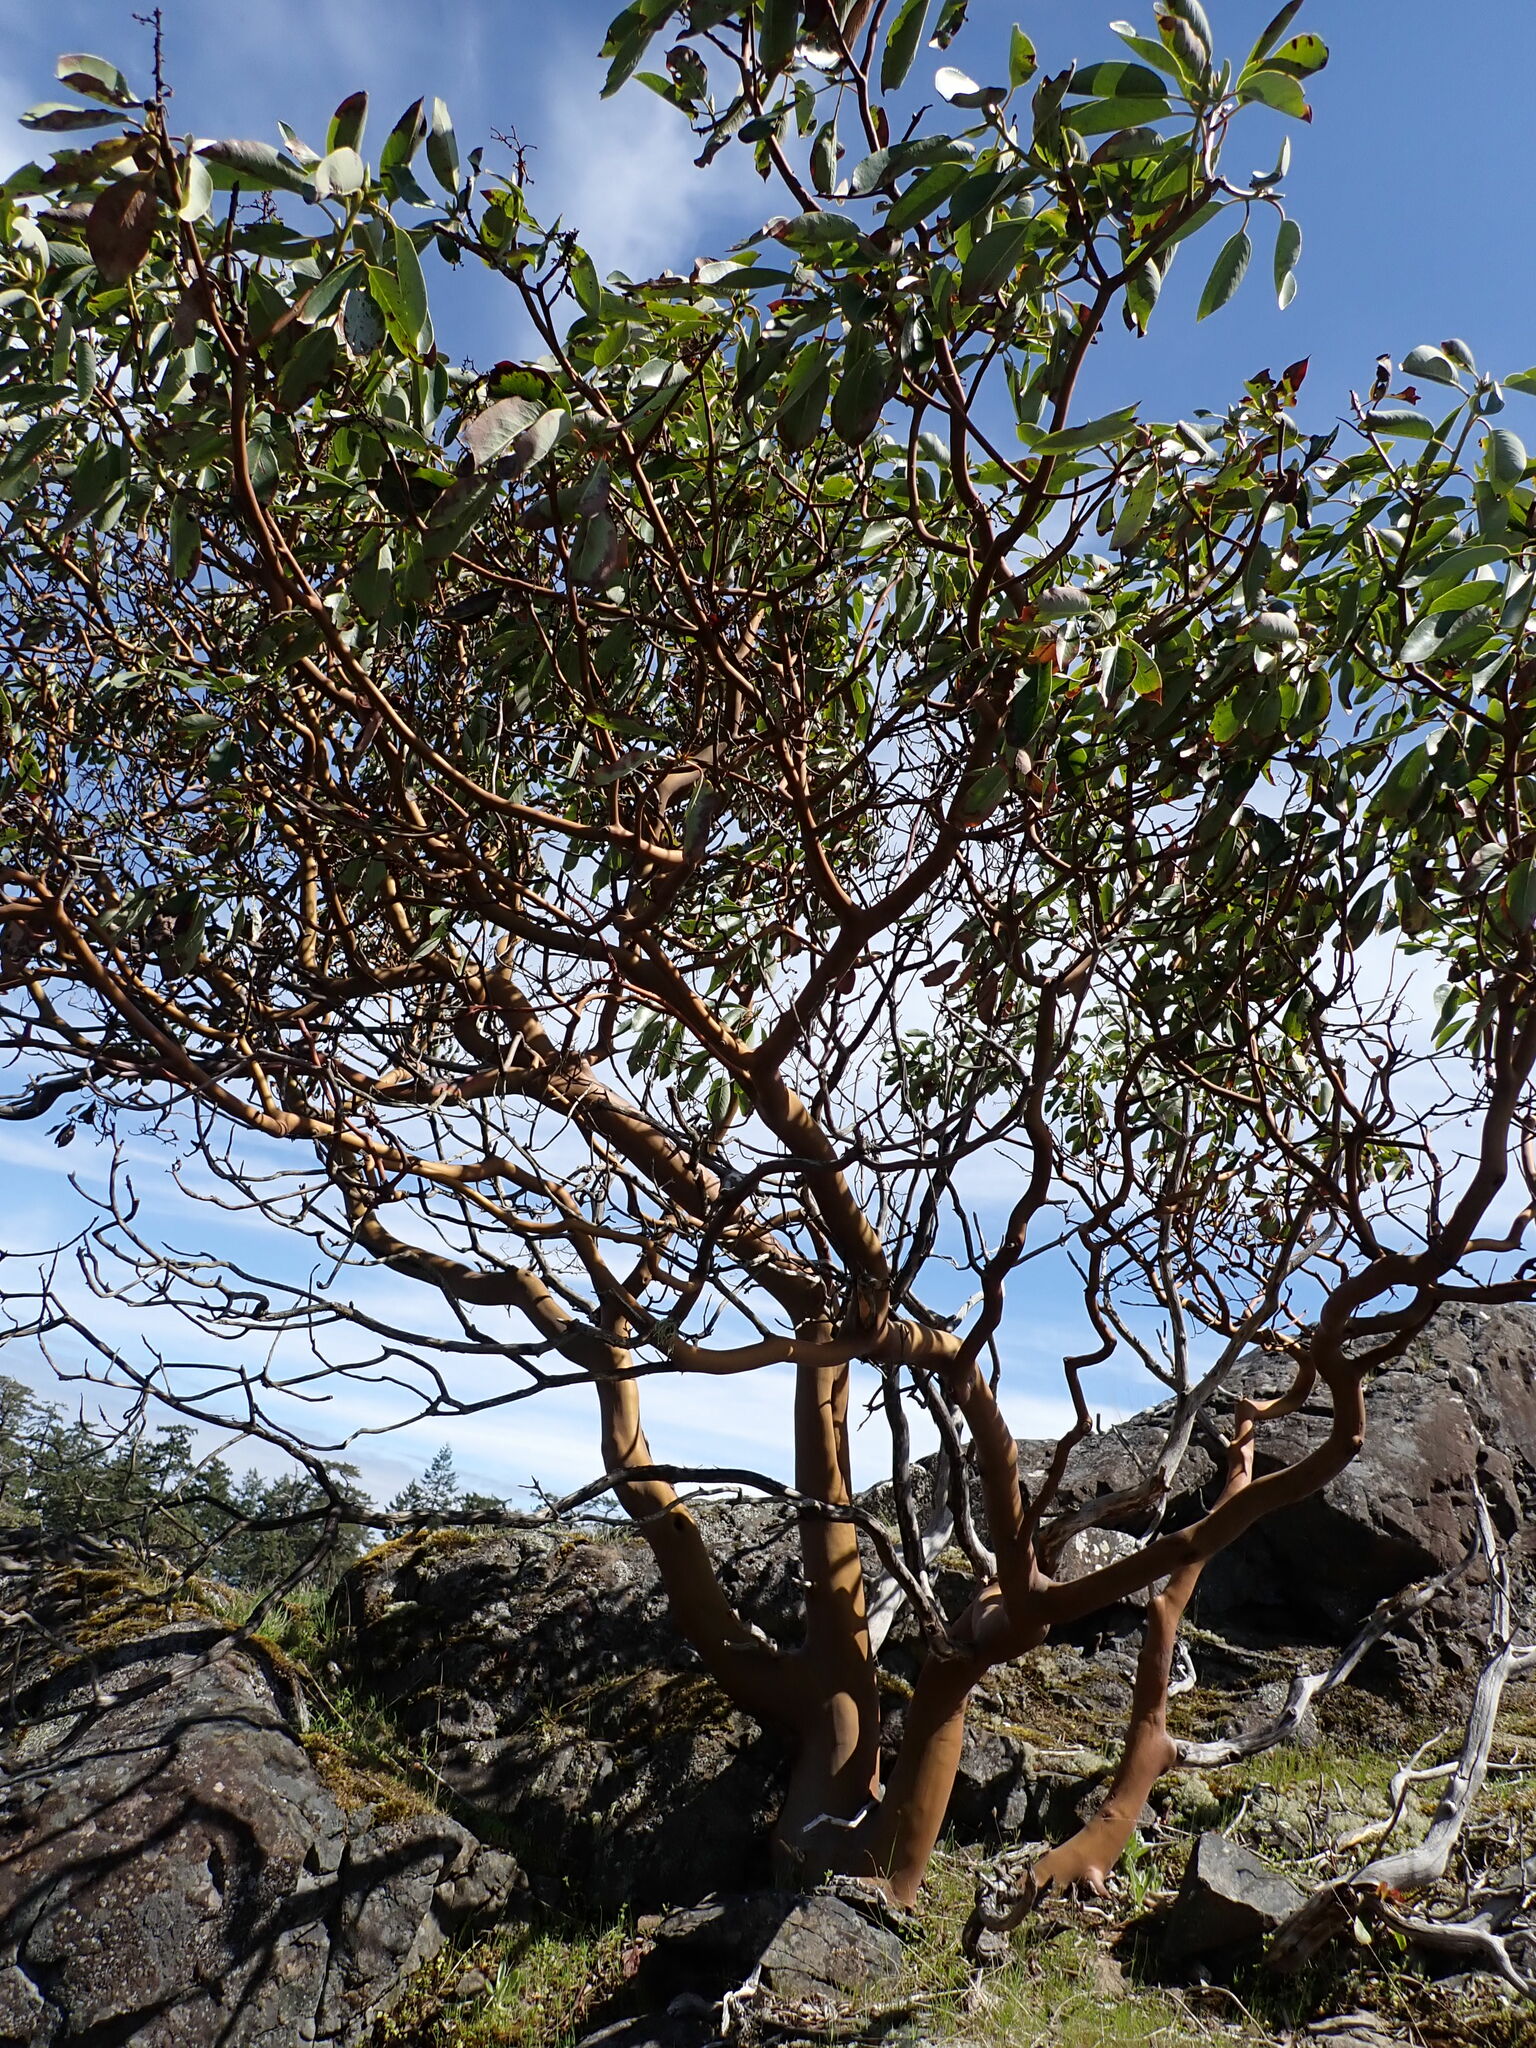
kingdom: Plantae
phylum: Tracheophyta
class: Magnoliopsida
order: Ericales
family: Ericaceae
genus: Arbutus
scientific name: Arbutus menziesii
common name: Pacific madrone
